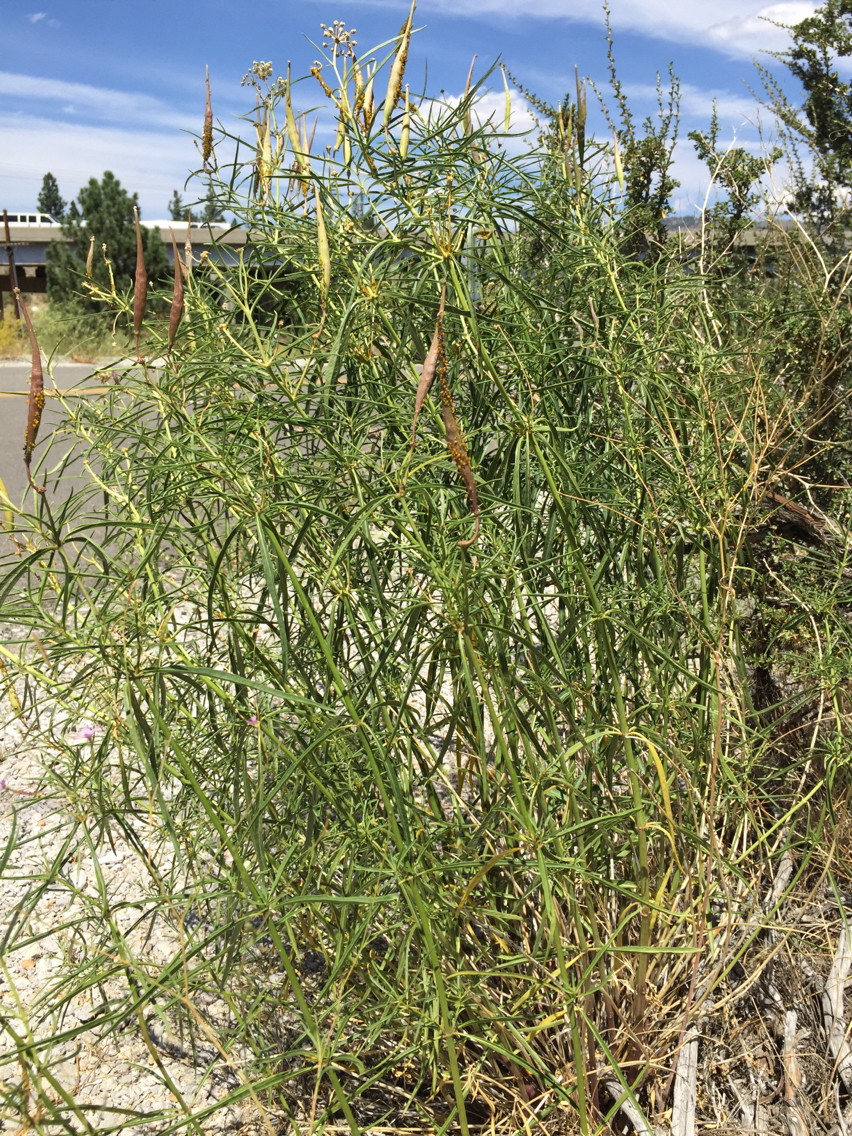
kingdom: Plantae
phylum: Tracheophyta
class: Magnoliopsida
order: Gentianales
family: Apocynaceae
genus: Asclepias
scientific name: Asclepias fascicularis
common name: Mexican milkweed
